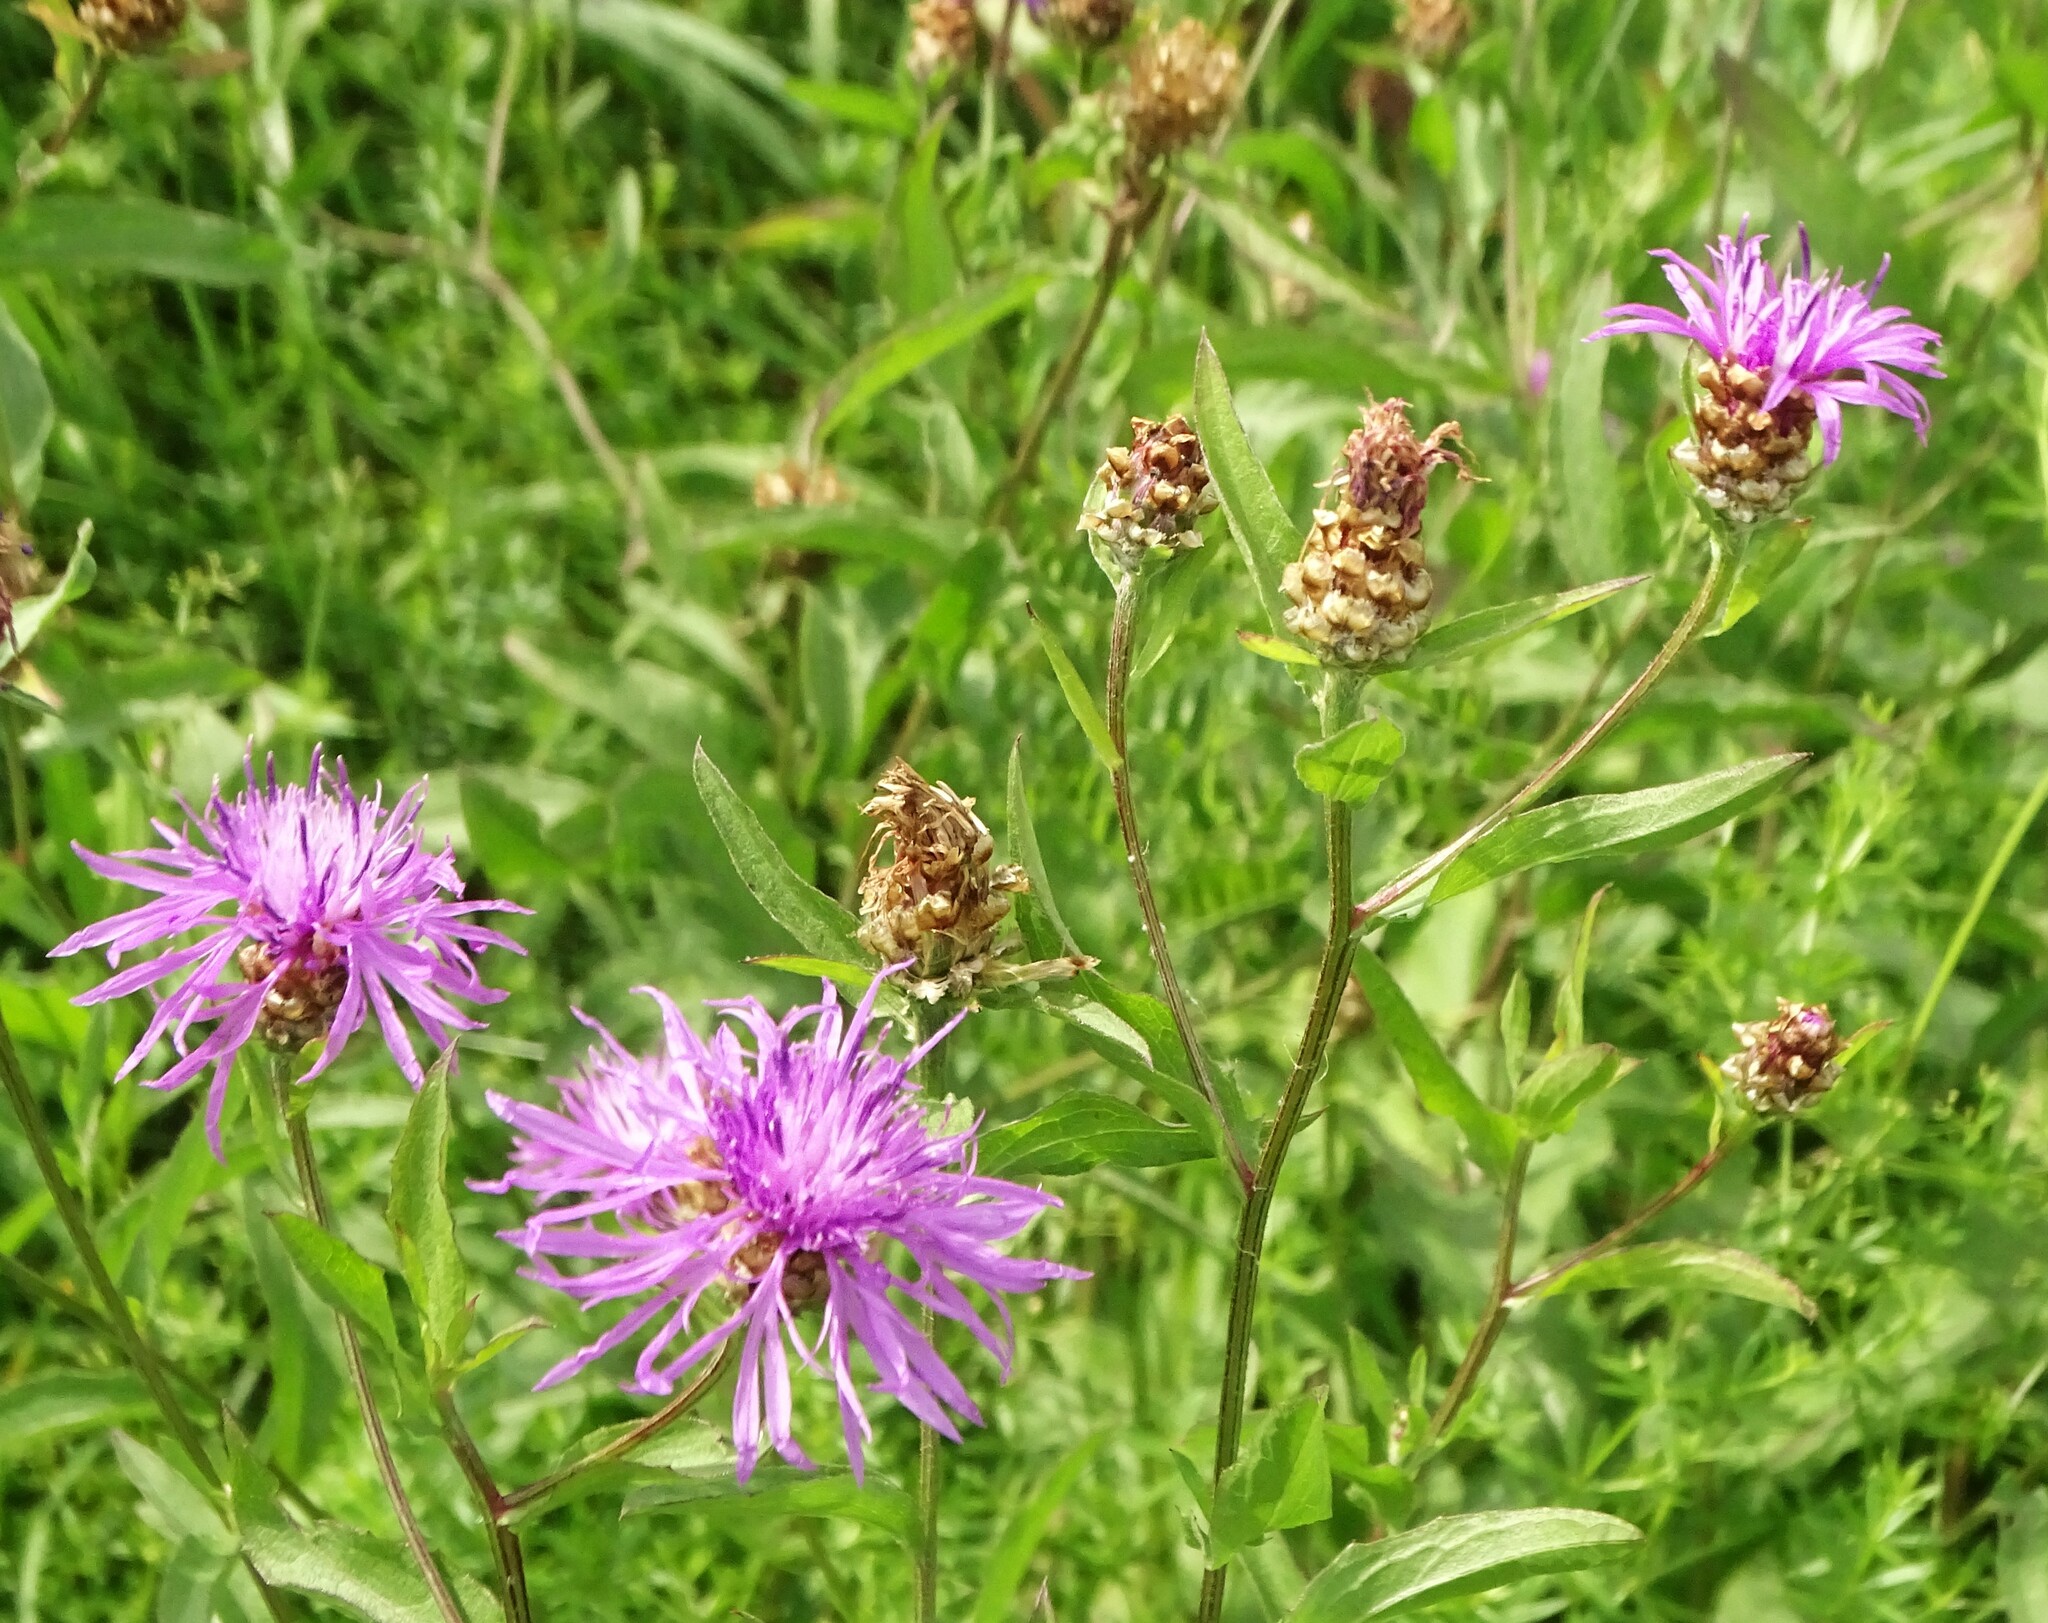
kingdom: Plantae
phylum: Tracheophyta
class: Magnoliopsida
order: Asterales
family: Asteraceae
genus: Centaurea
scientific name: Centaurea jacea
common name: Brown knapweed
